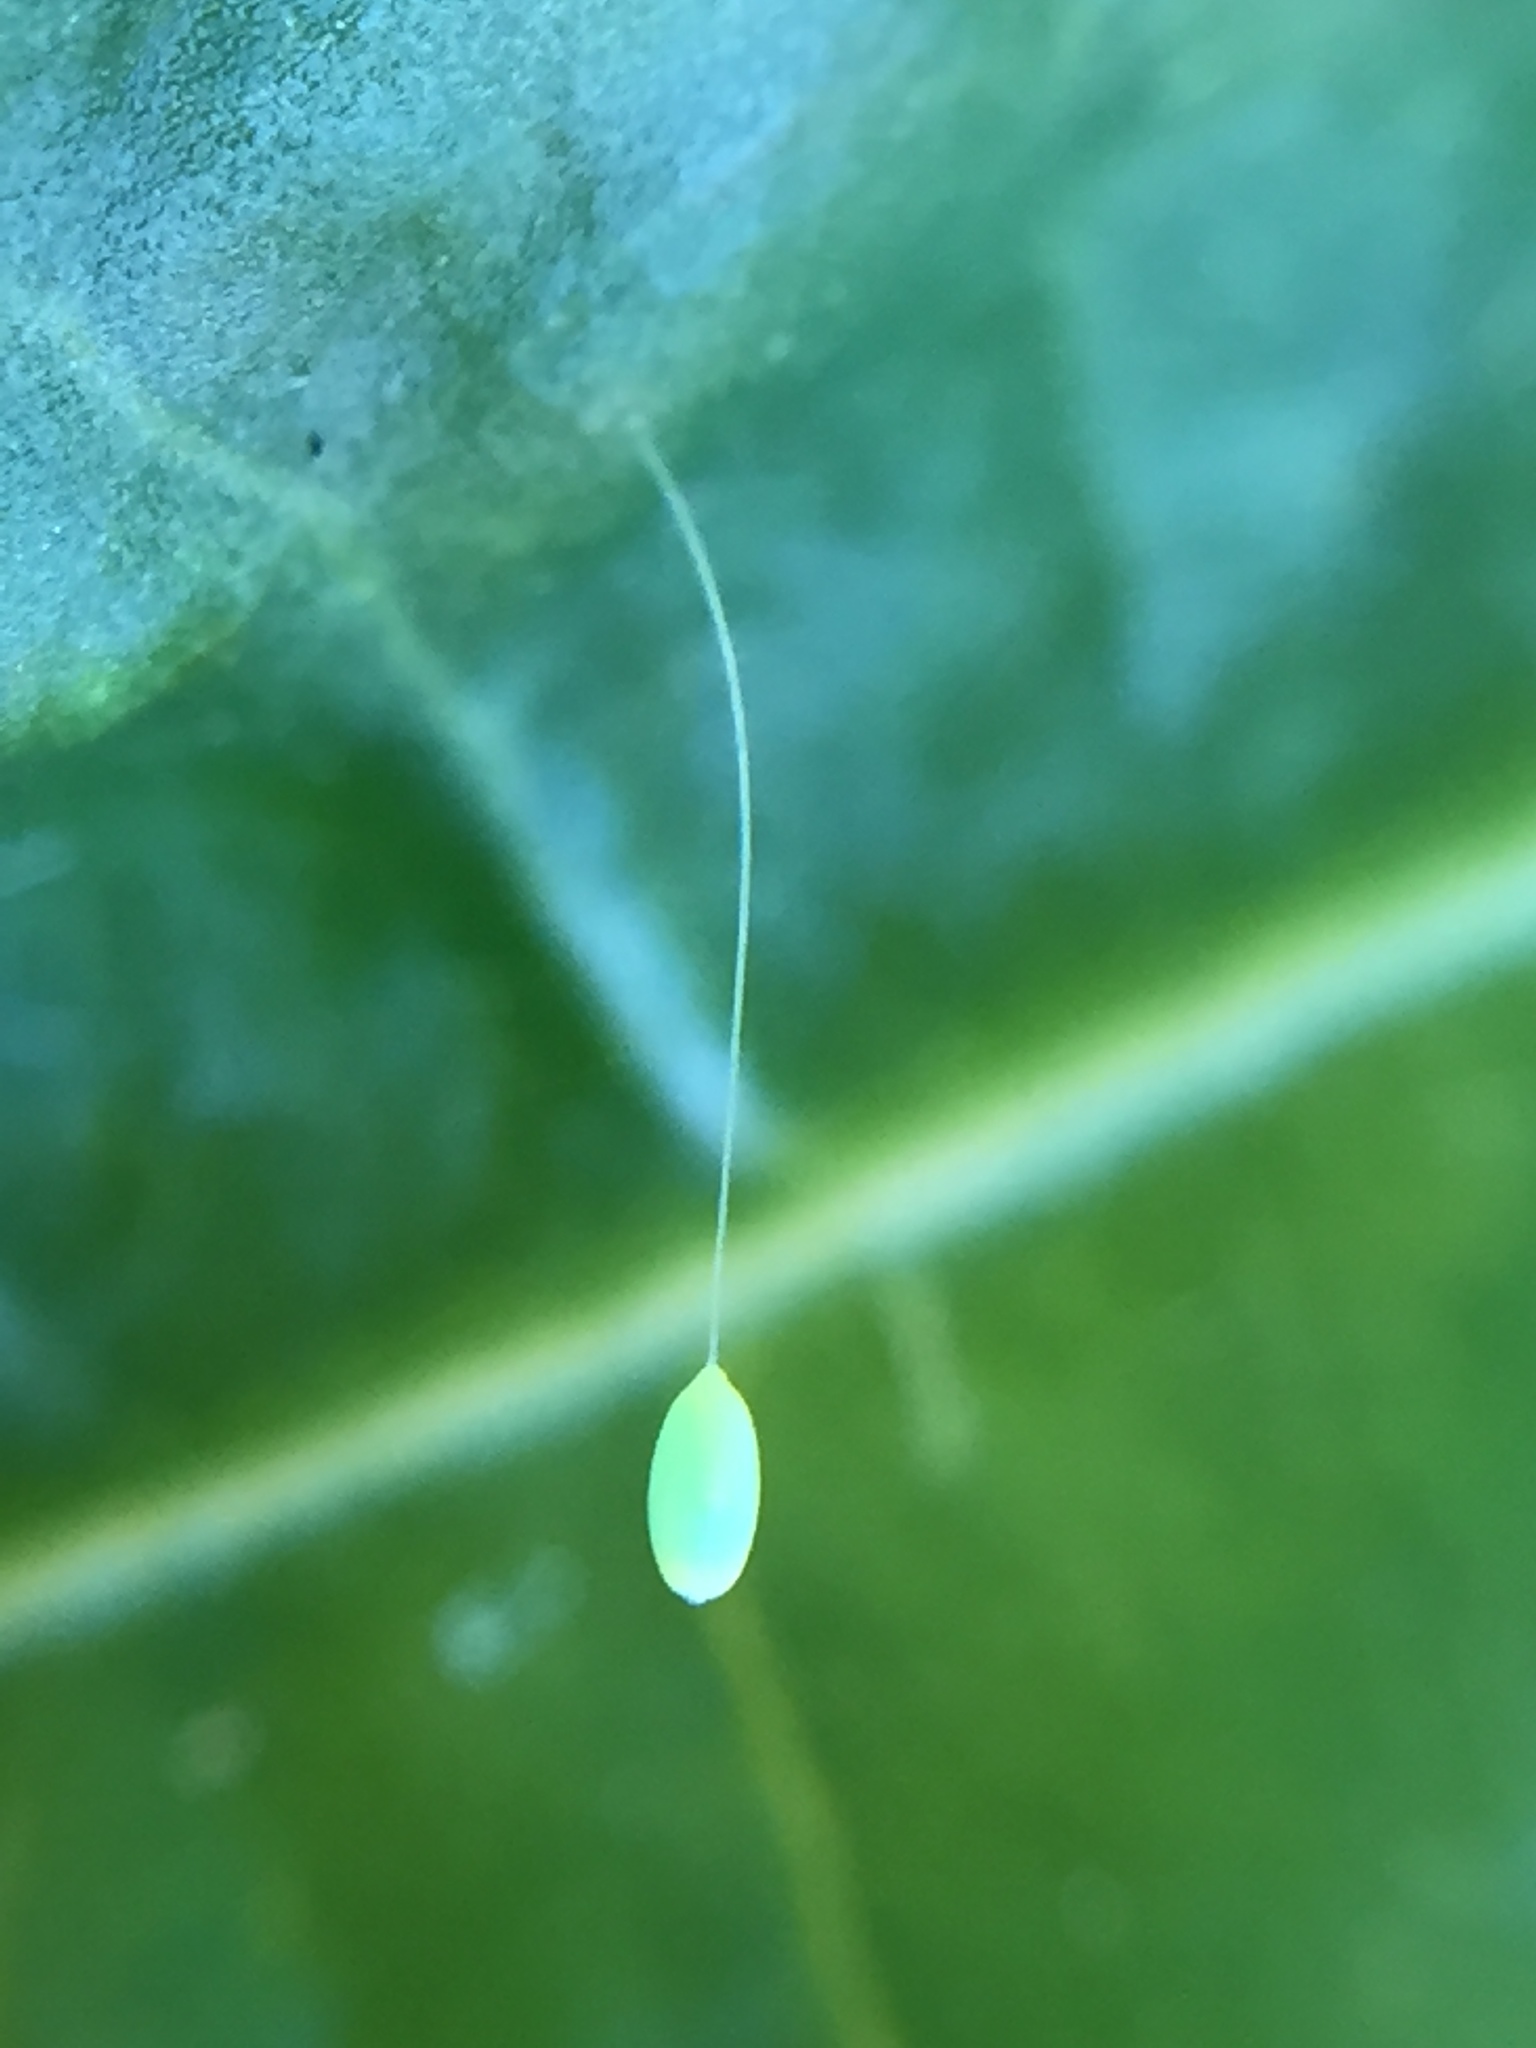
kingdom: Animalia
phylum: Arthropoda
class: Insecta
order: Neuroptera
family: Chrysopidae
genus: Mallada
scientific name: Mallada basalis
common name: Green lacewing
